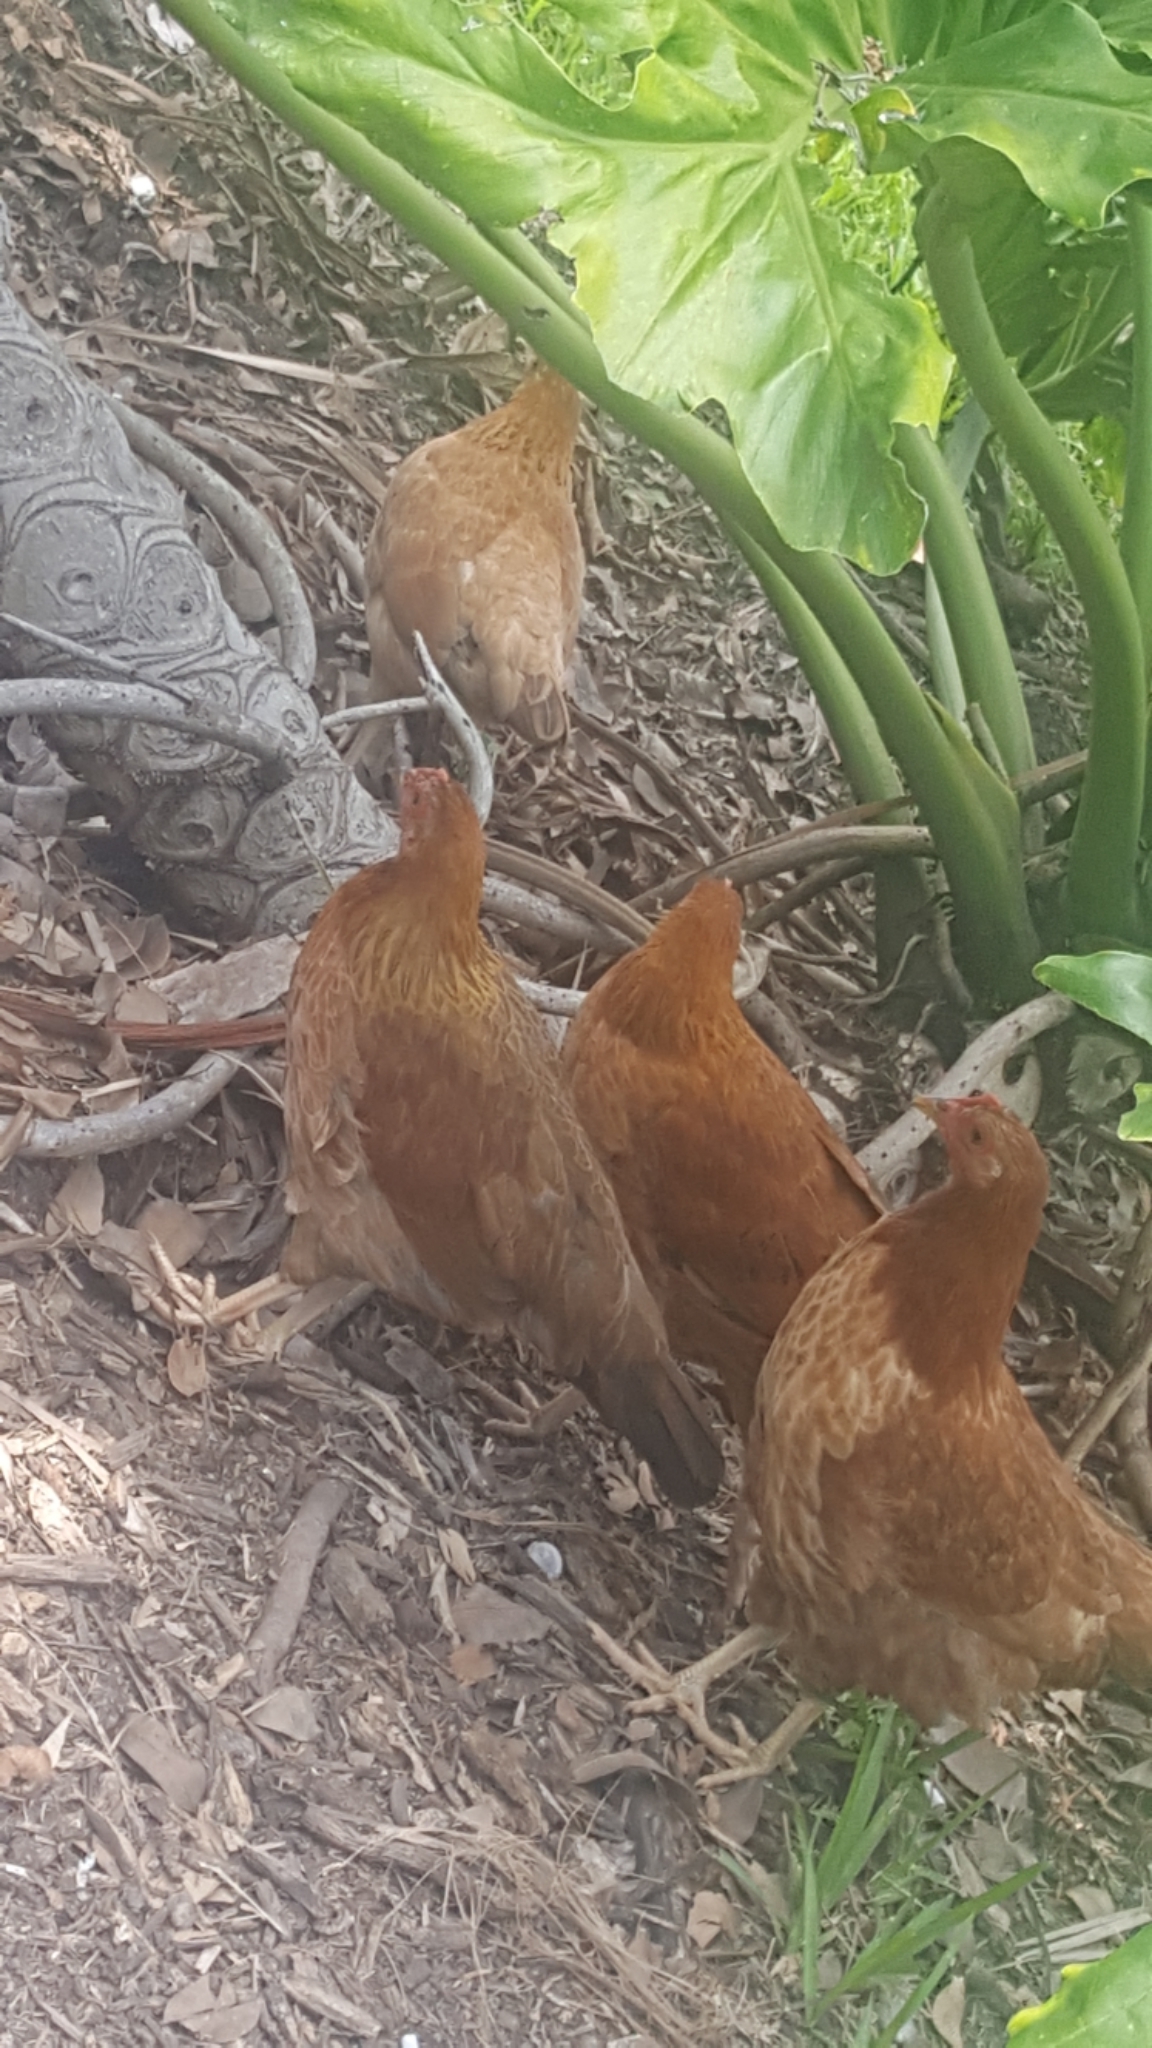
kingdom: Animalia
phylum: Chordata
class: Aves
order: Galliformes
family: Phasianidae
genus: Gallus
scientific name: Gallus gallus
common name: Red junglefowl
